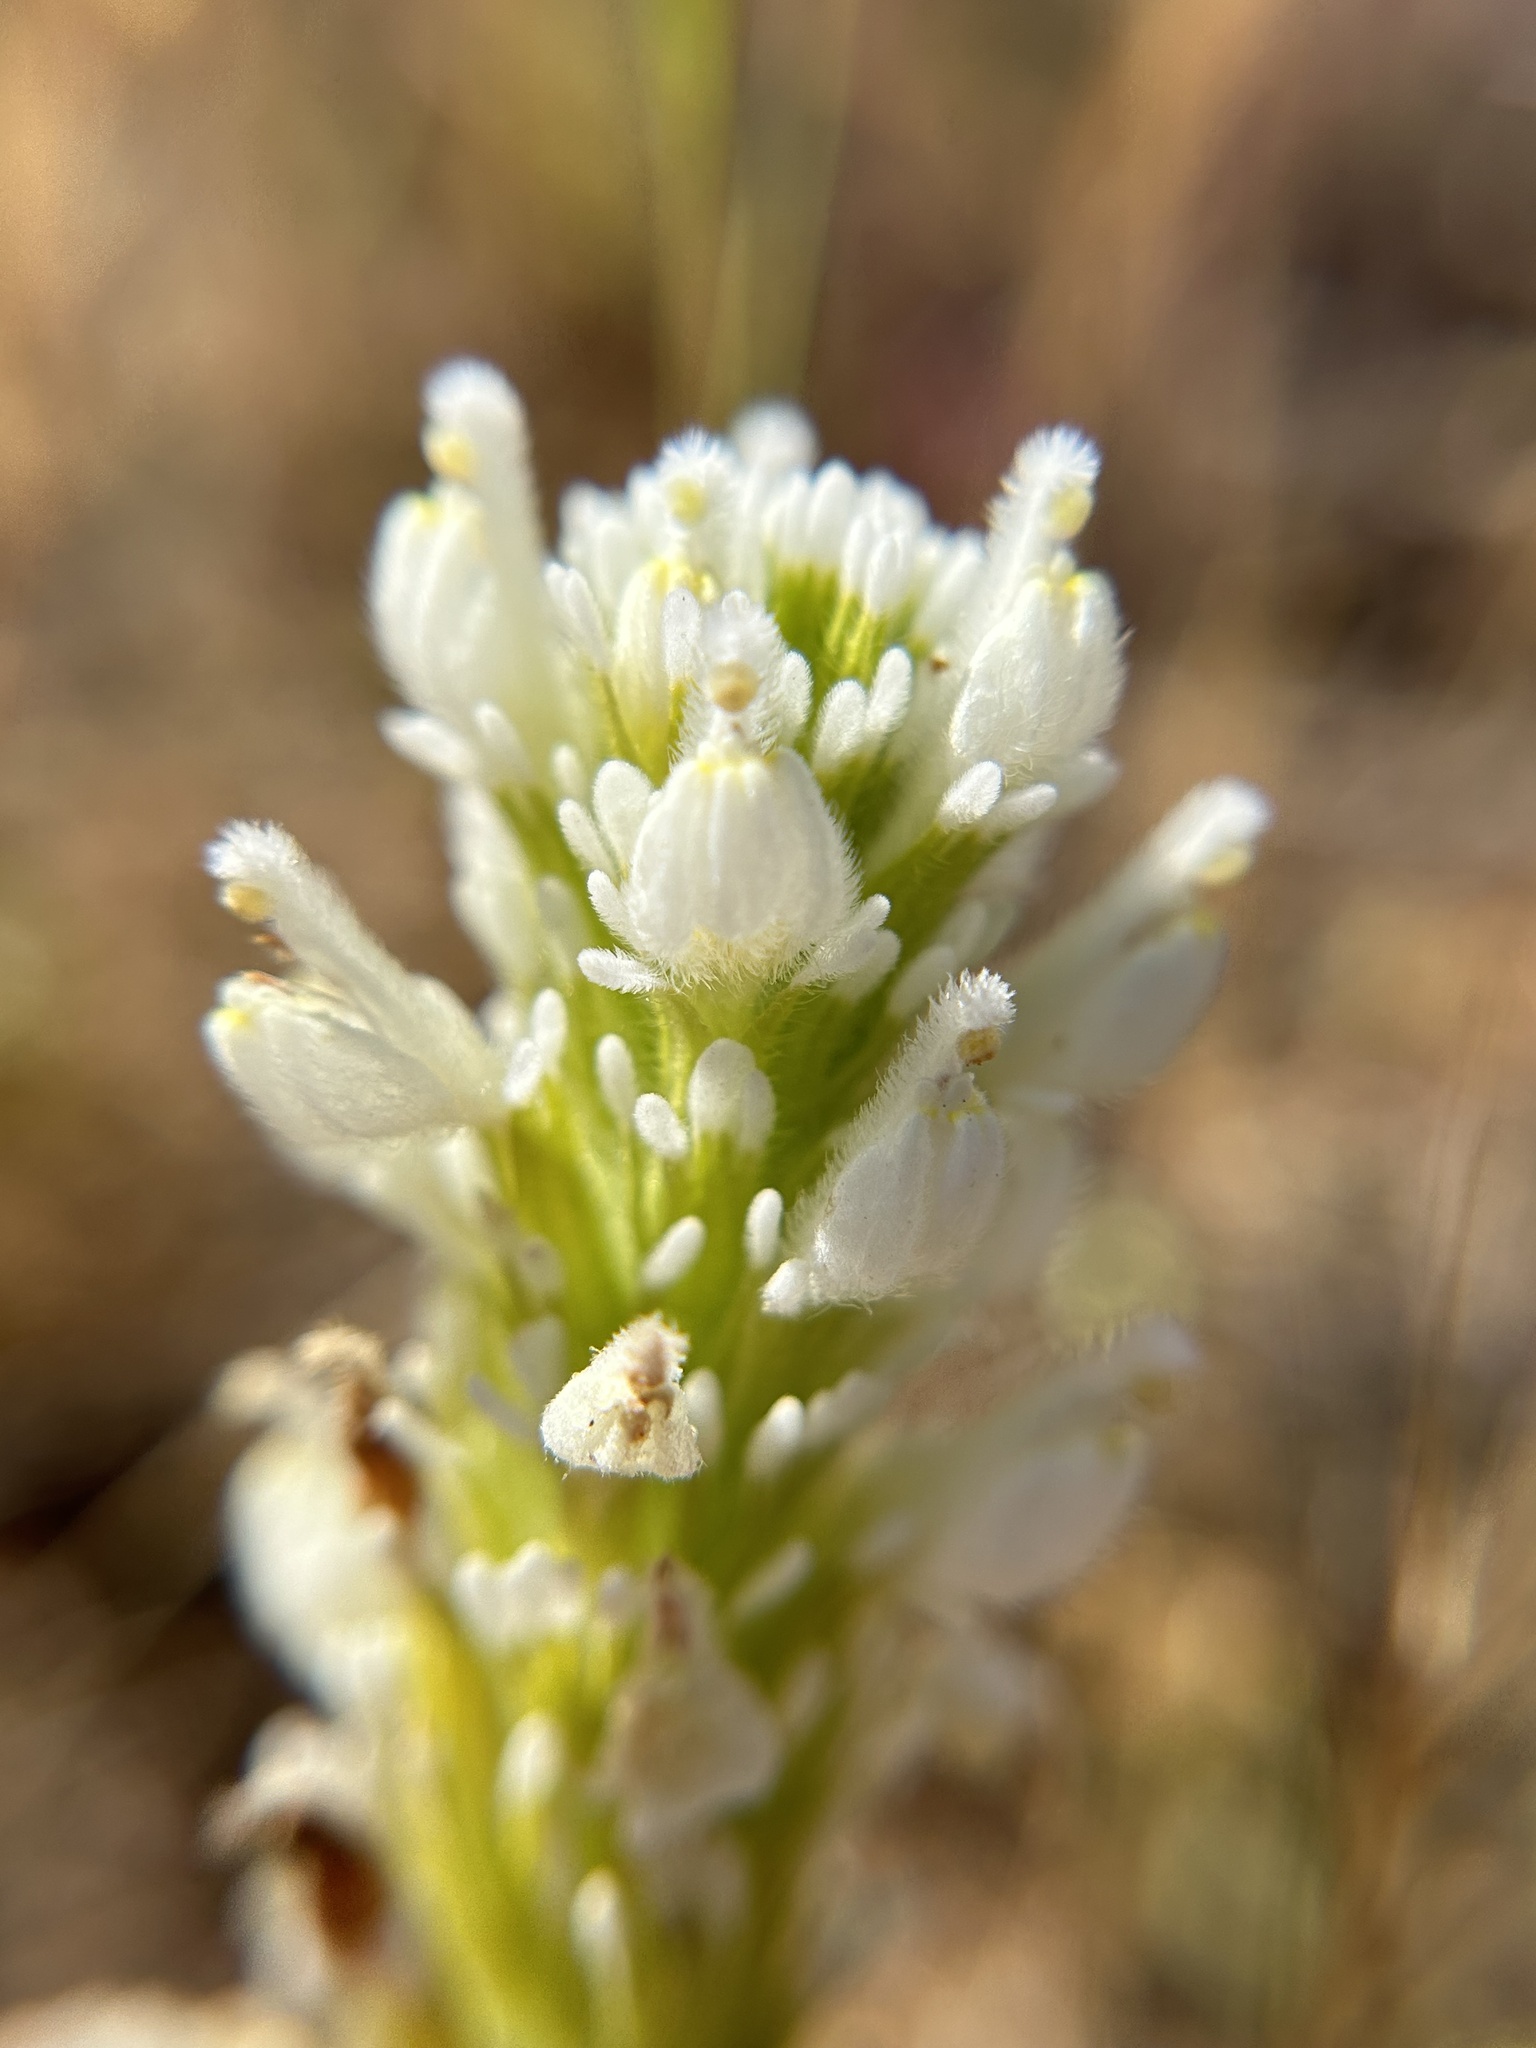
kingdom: Plantae
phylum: Tracheophyta
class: Magnoliopsida
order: Lamiales
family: Orobanchaceae
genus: Castilleja
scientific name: Castilleja exserta
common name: Purple owl-clover
